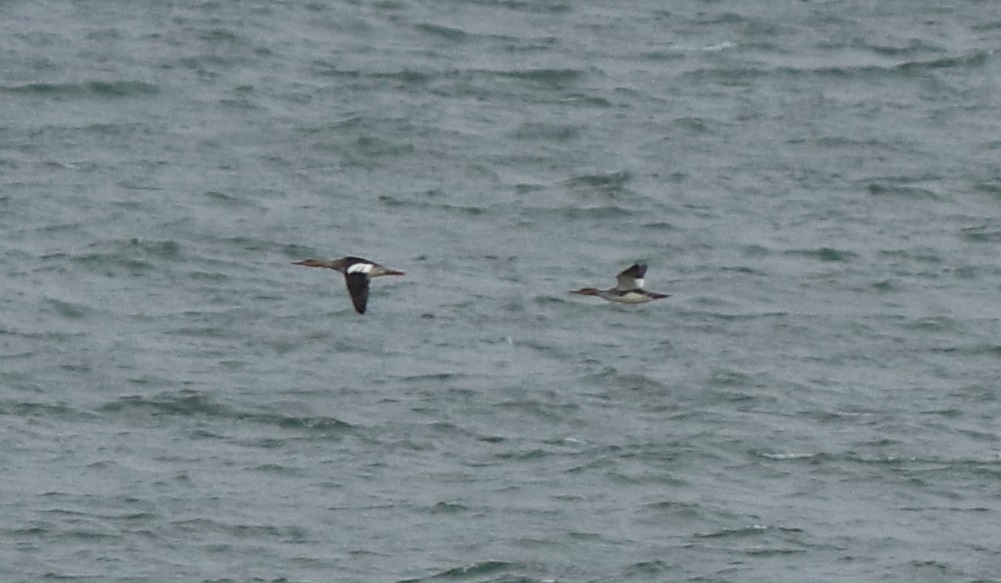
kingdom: Animalia
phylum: Chordata
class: Aves
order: Anseriformes
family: Anatidae
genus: Mergus
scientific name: Mergus serrator
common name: Red-breasted merganser
